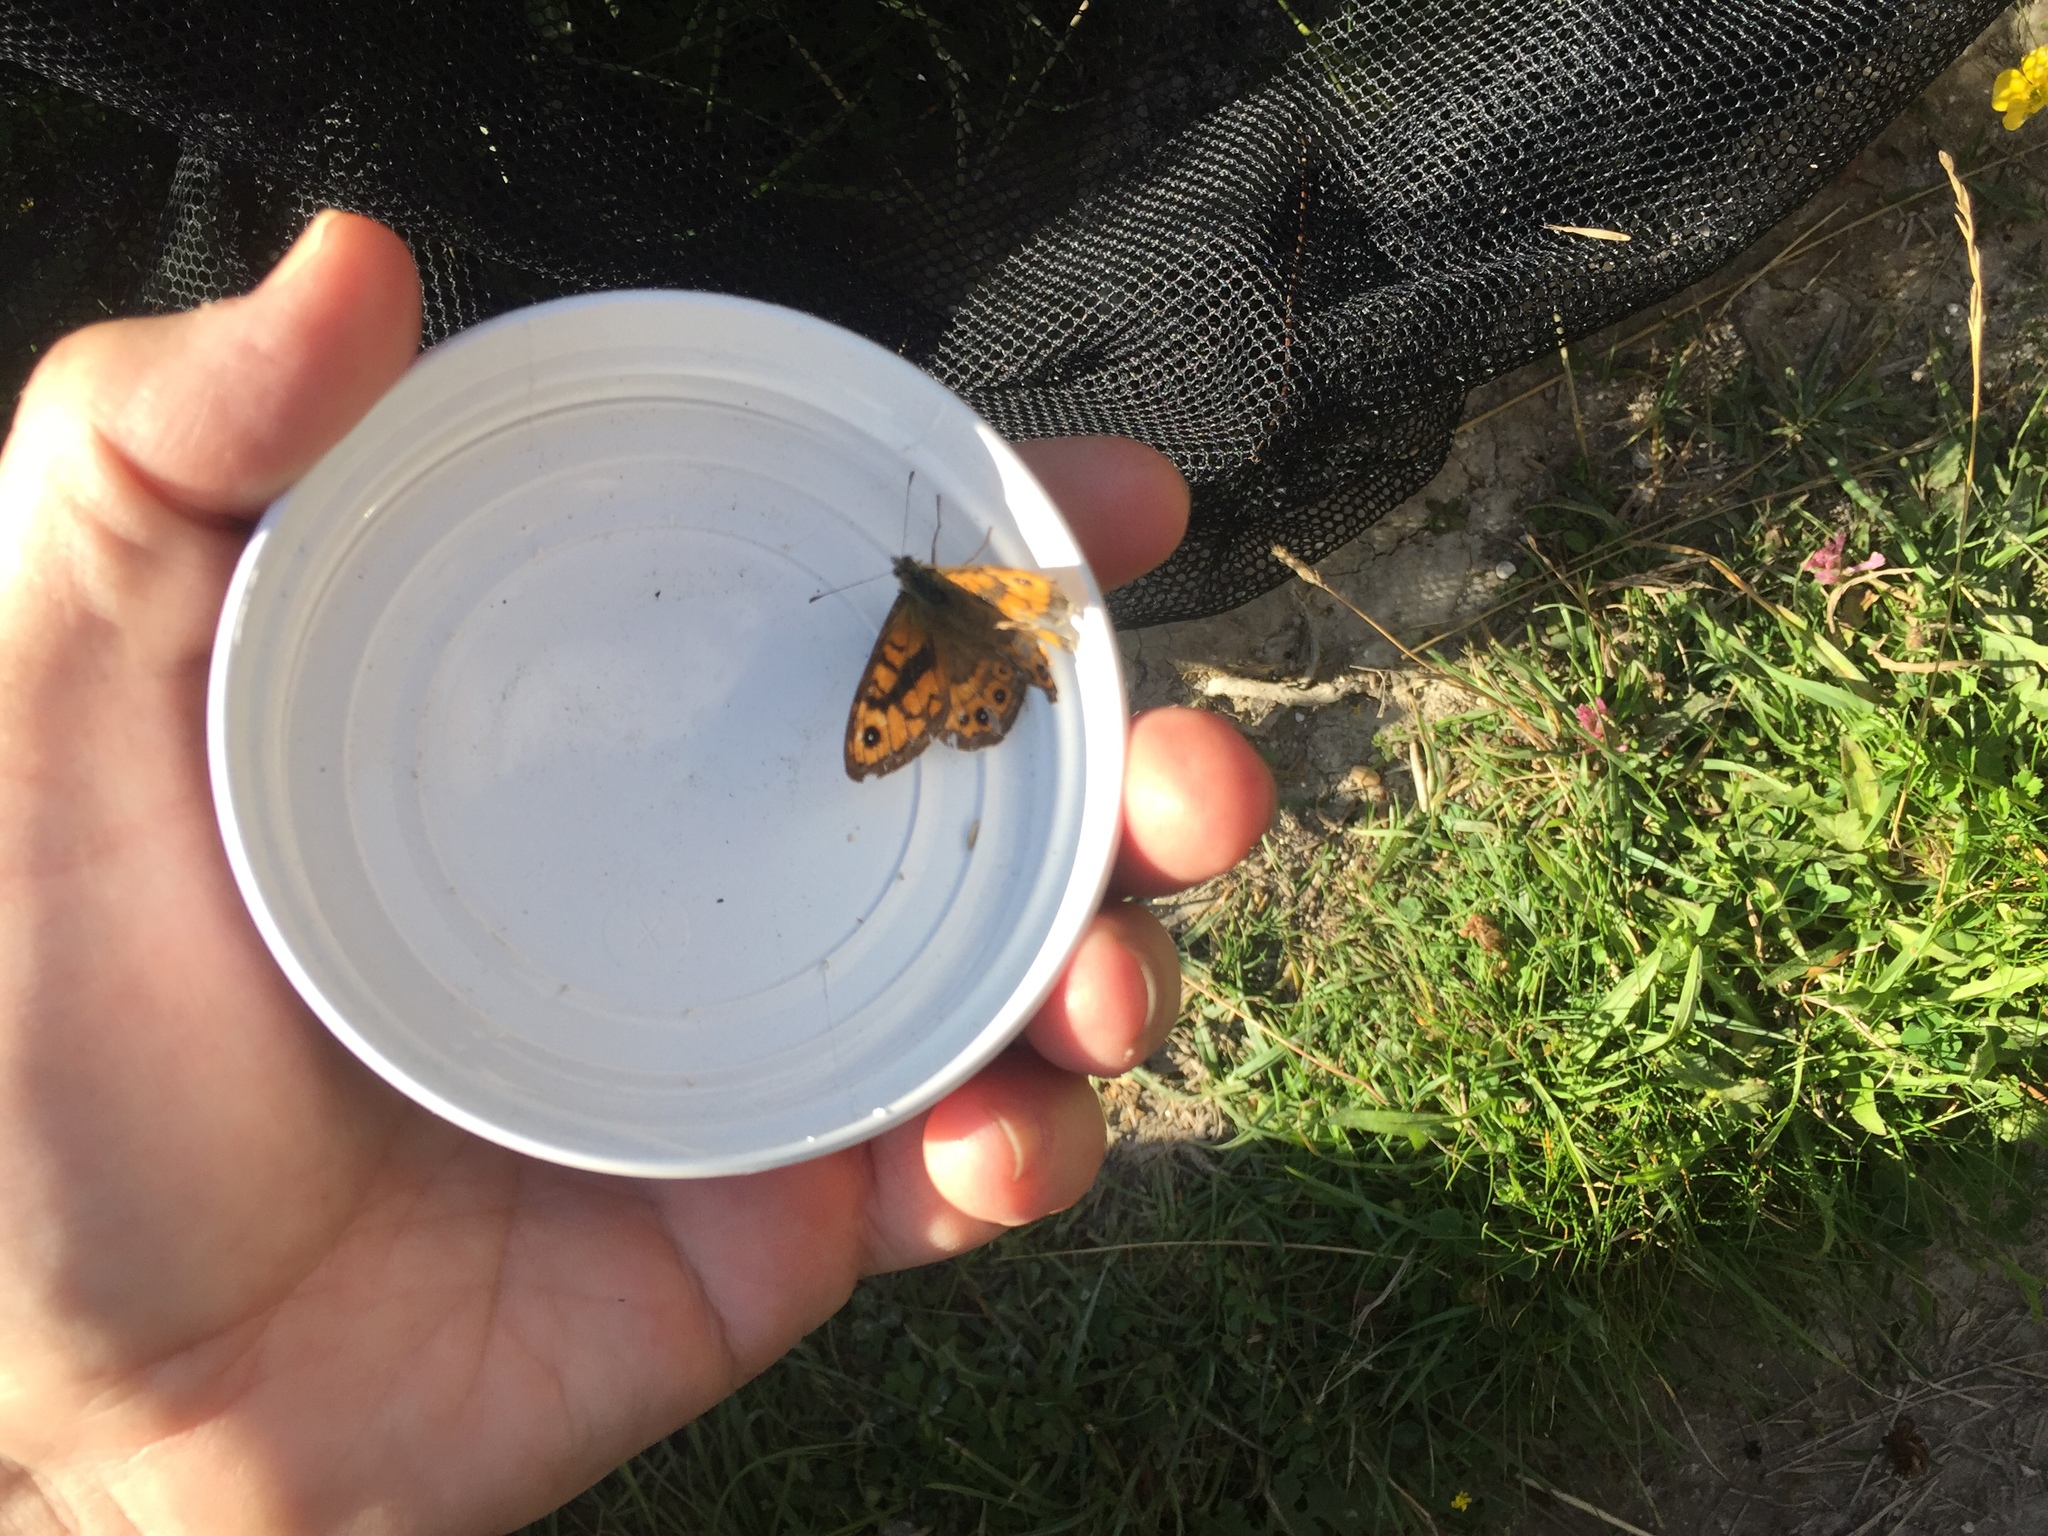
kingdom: Animalia
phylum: Arthropoda
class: Insecta
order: Lepidoptera
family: Nymphalidae
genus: Pararge
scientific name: Pararge Lasiommata megera
